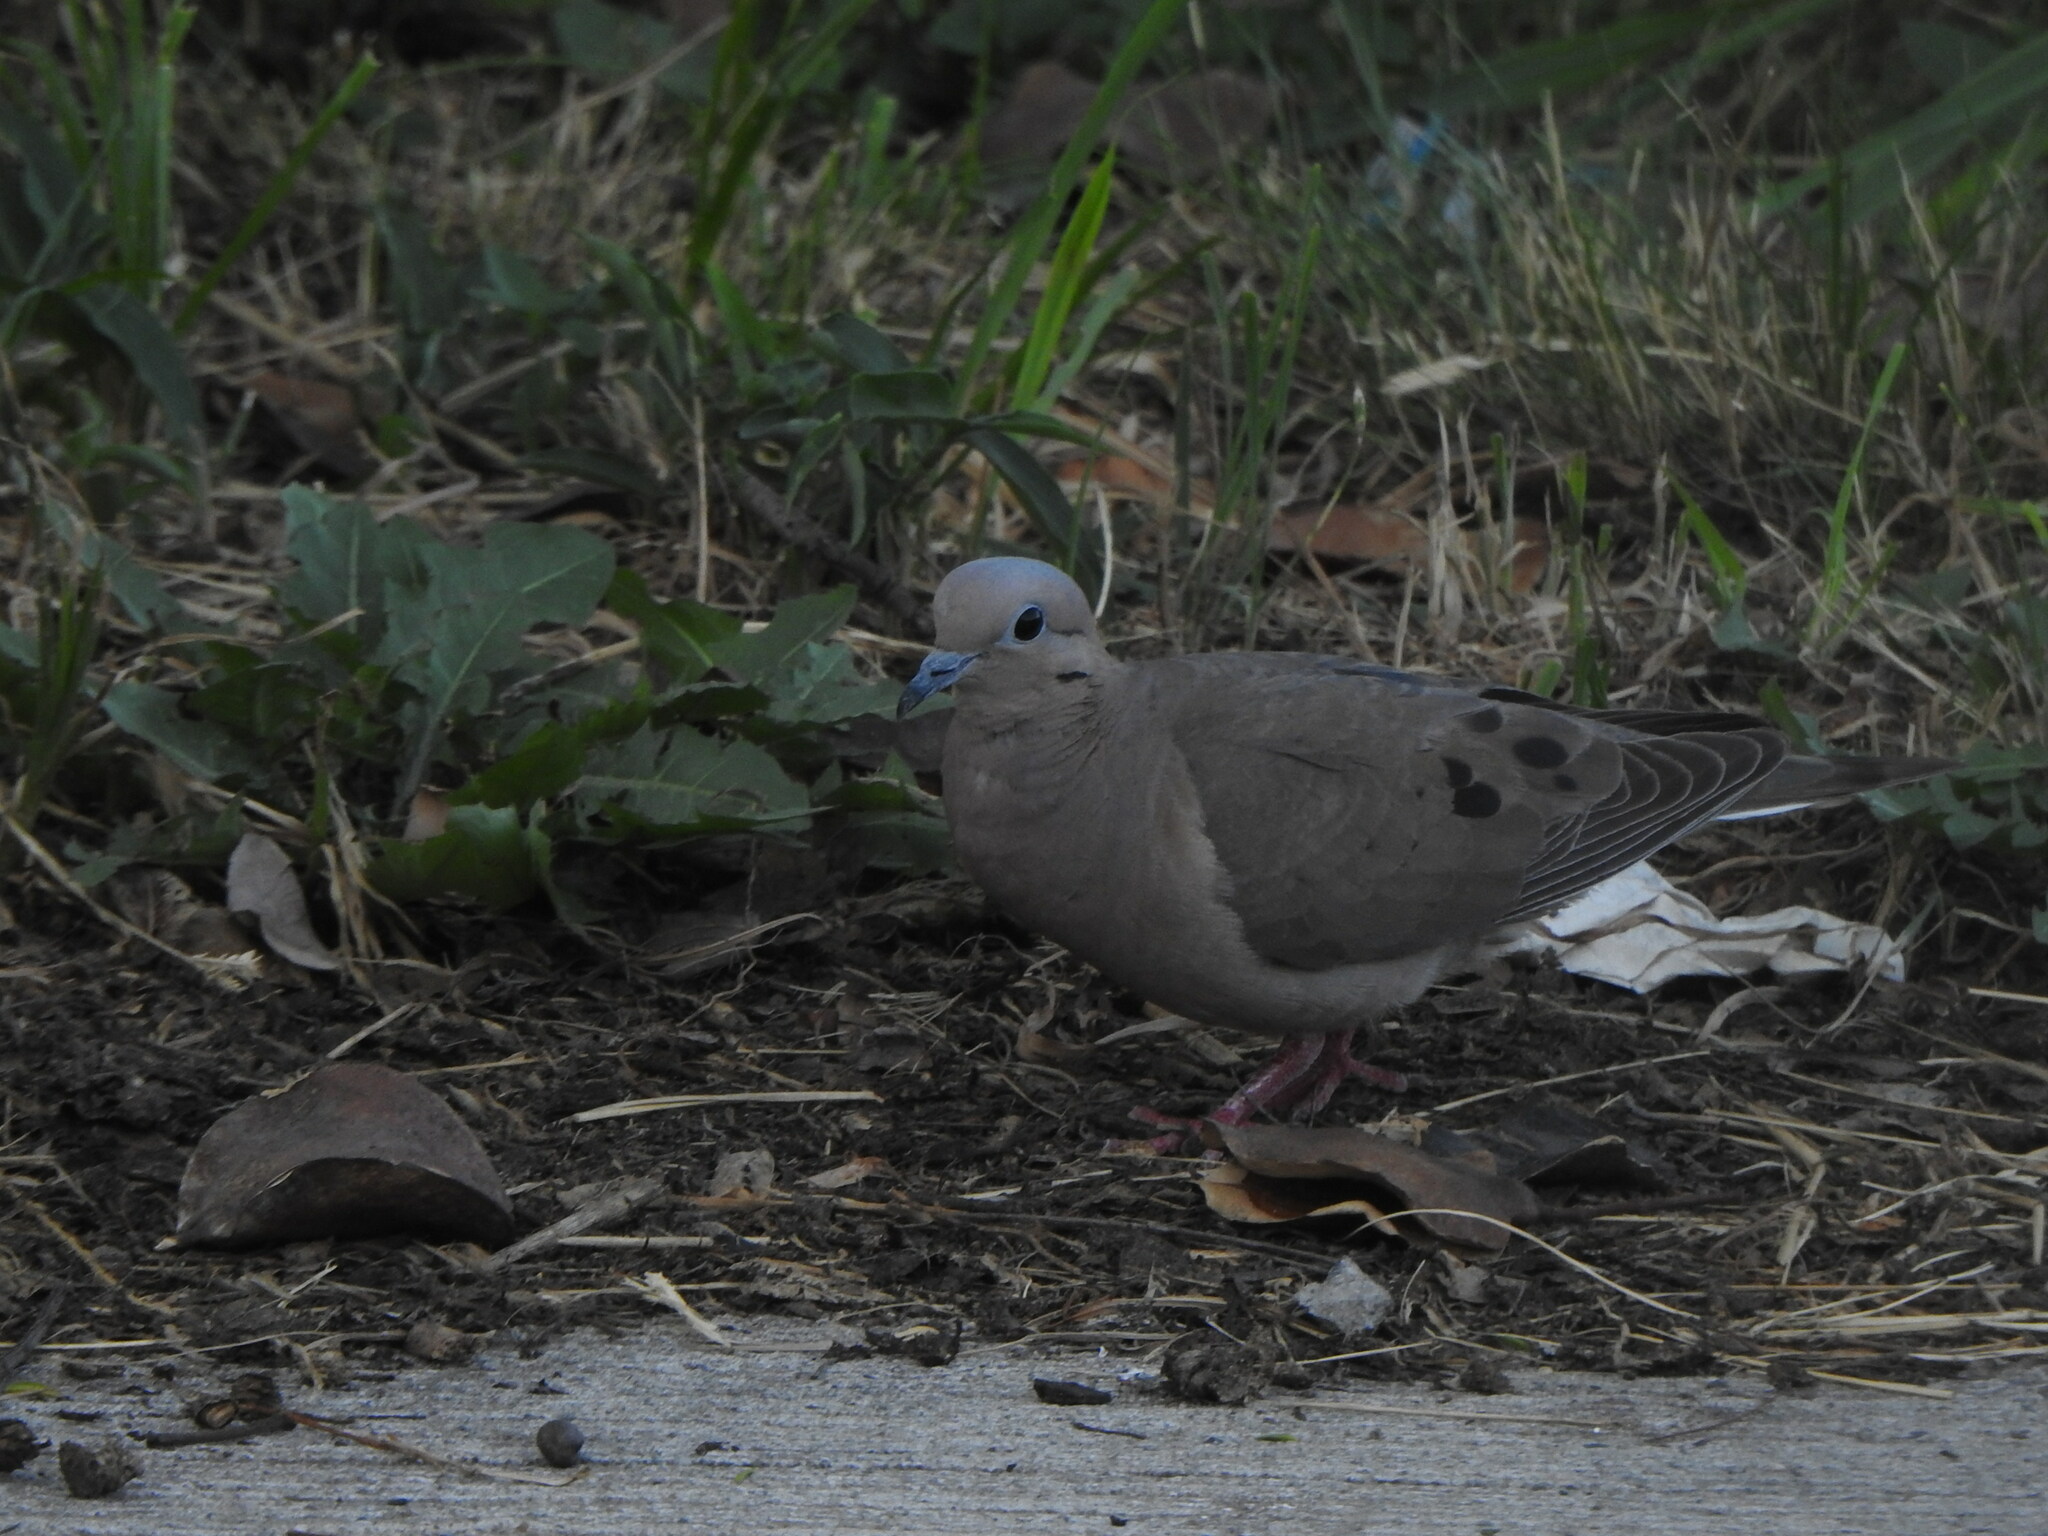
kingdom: Animalia
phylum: Chordata
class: Aves
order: Columbiformes
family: Columbidae
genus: Zenaida
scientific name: Zenaida auriculata
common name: Eared dove
